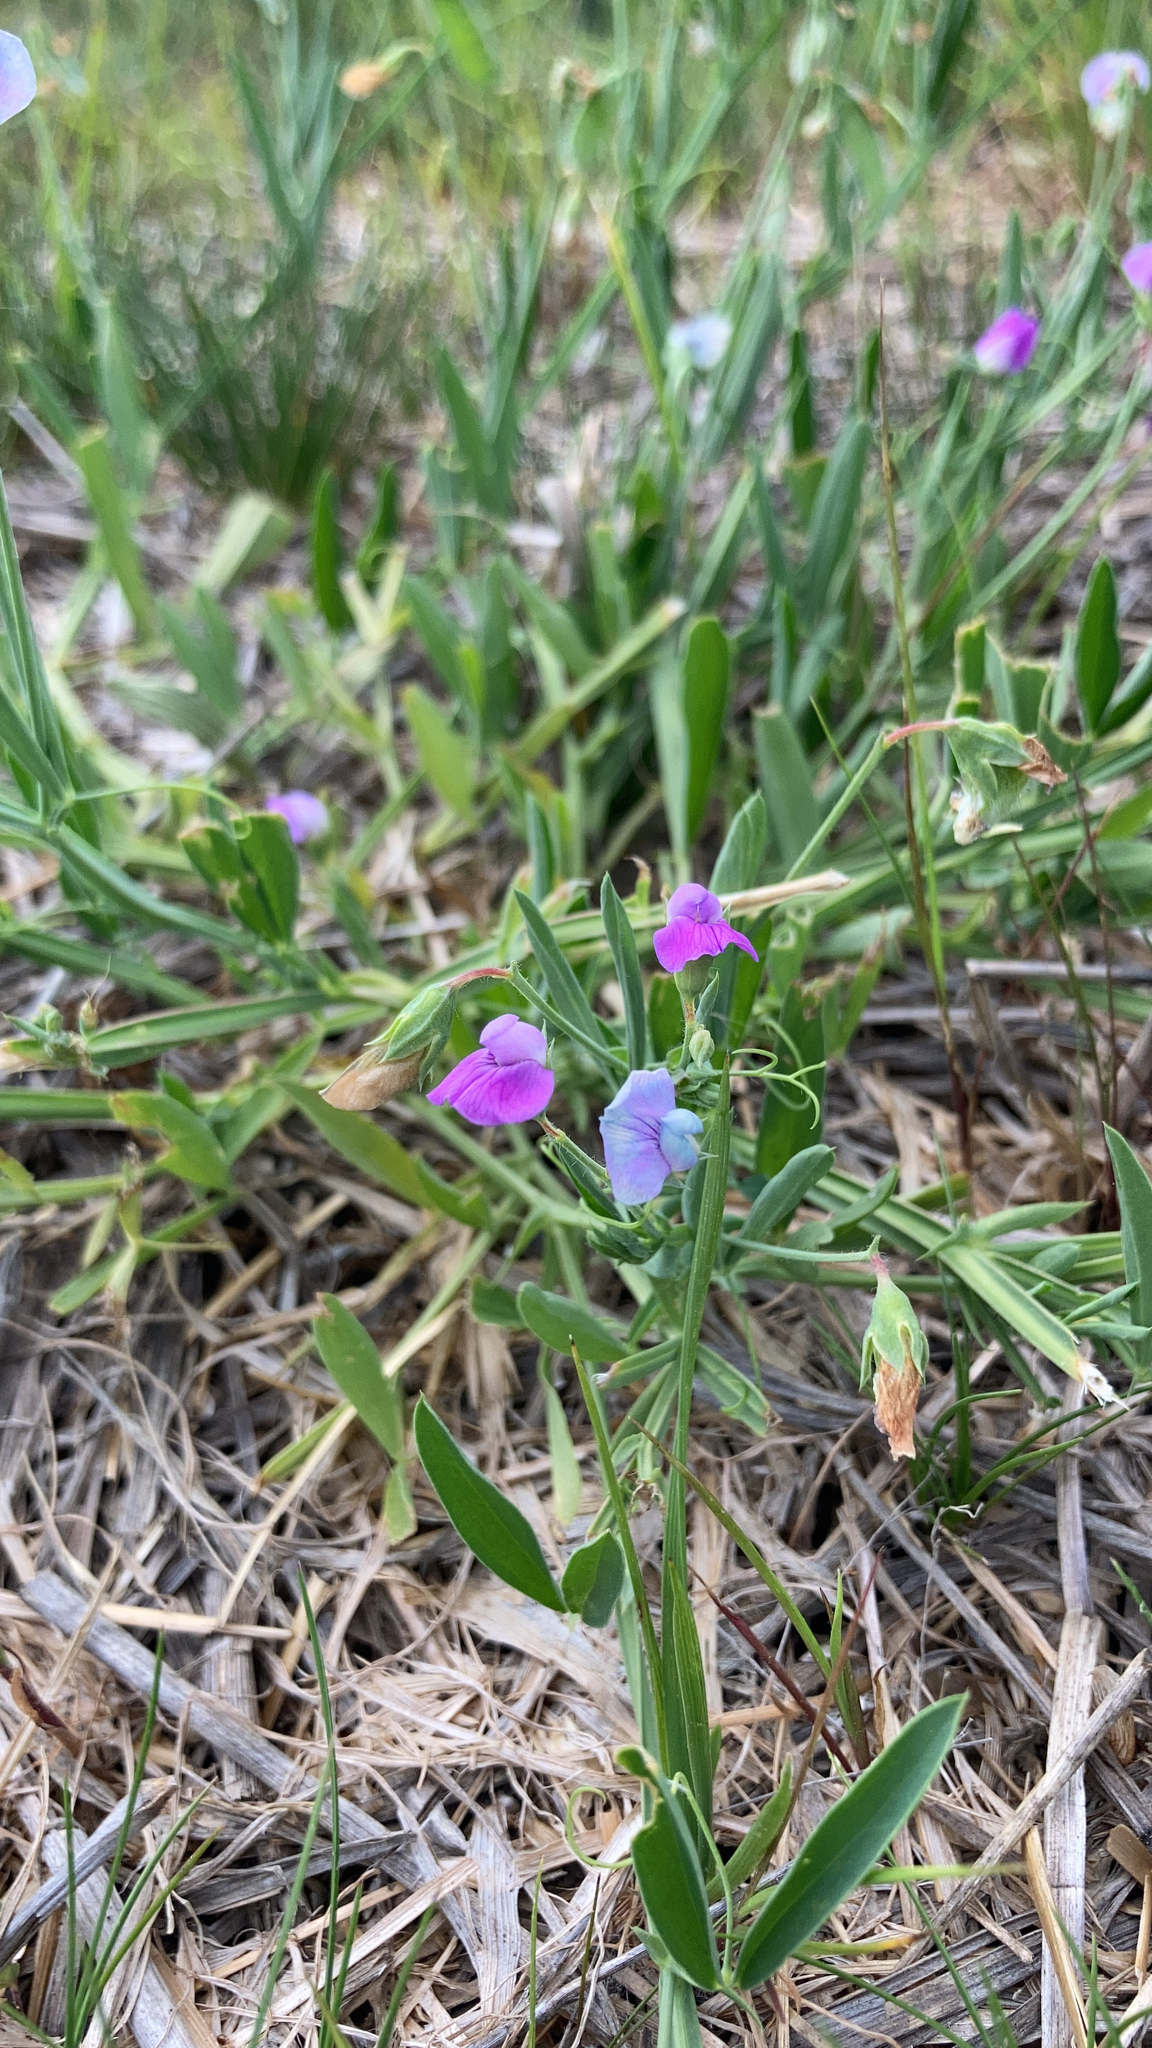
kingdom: Plantae
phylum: Tracheophyta
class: Magnoliopsida
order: Fabales
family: Fabaceae
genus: Lathyrus
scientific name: Lathyrus hirsutus
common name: Hairy vetchling
